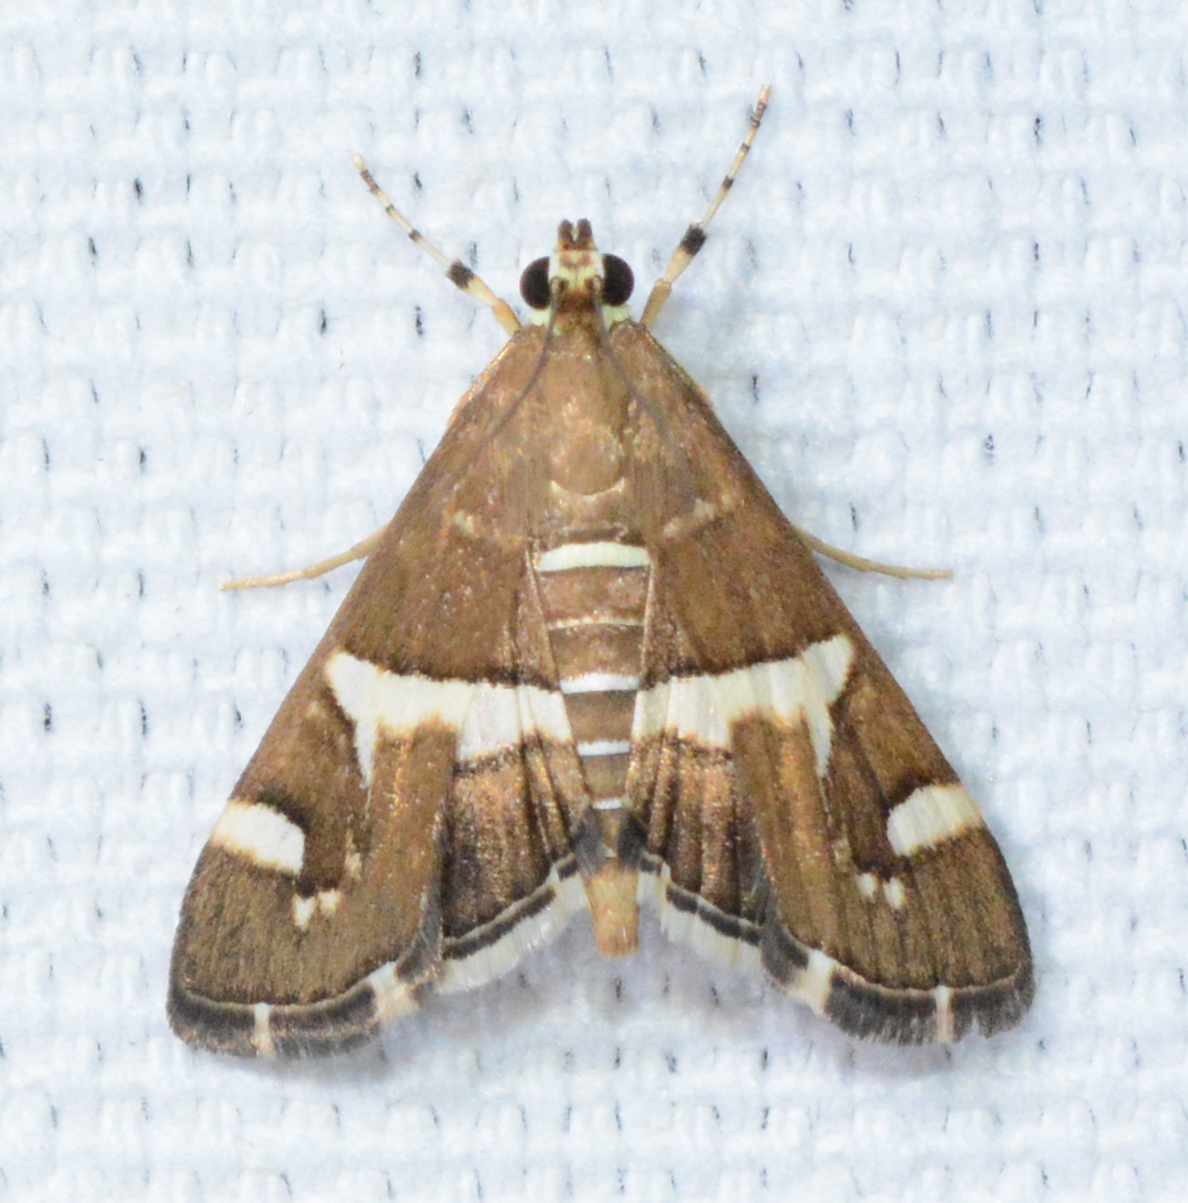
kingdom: Animalia
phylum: Arthropoda
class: Insecta
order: Lepidoptera
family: Crambidae
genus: Spoladea
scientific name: Spoladea recurvalis
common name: Beet webworm moth
